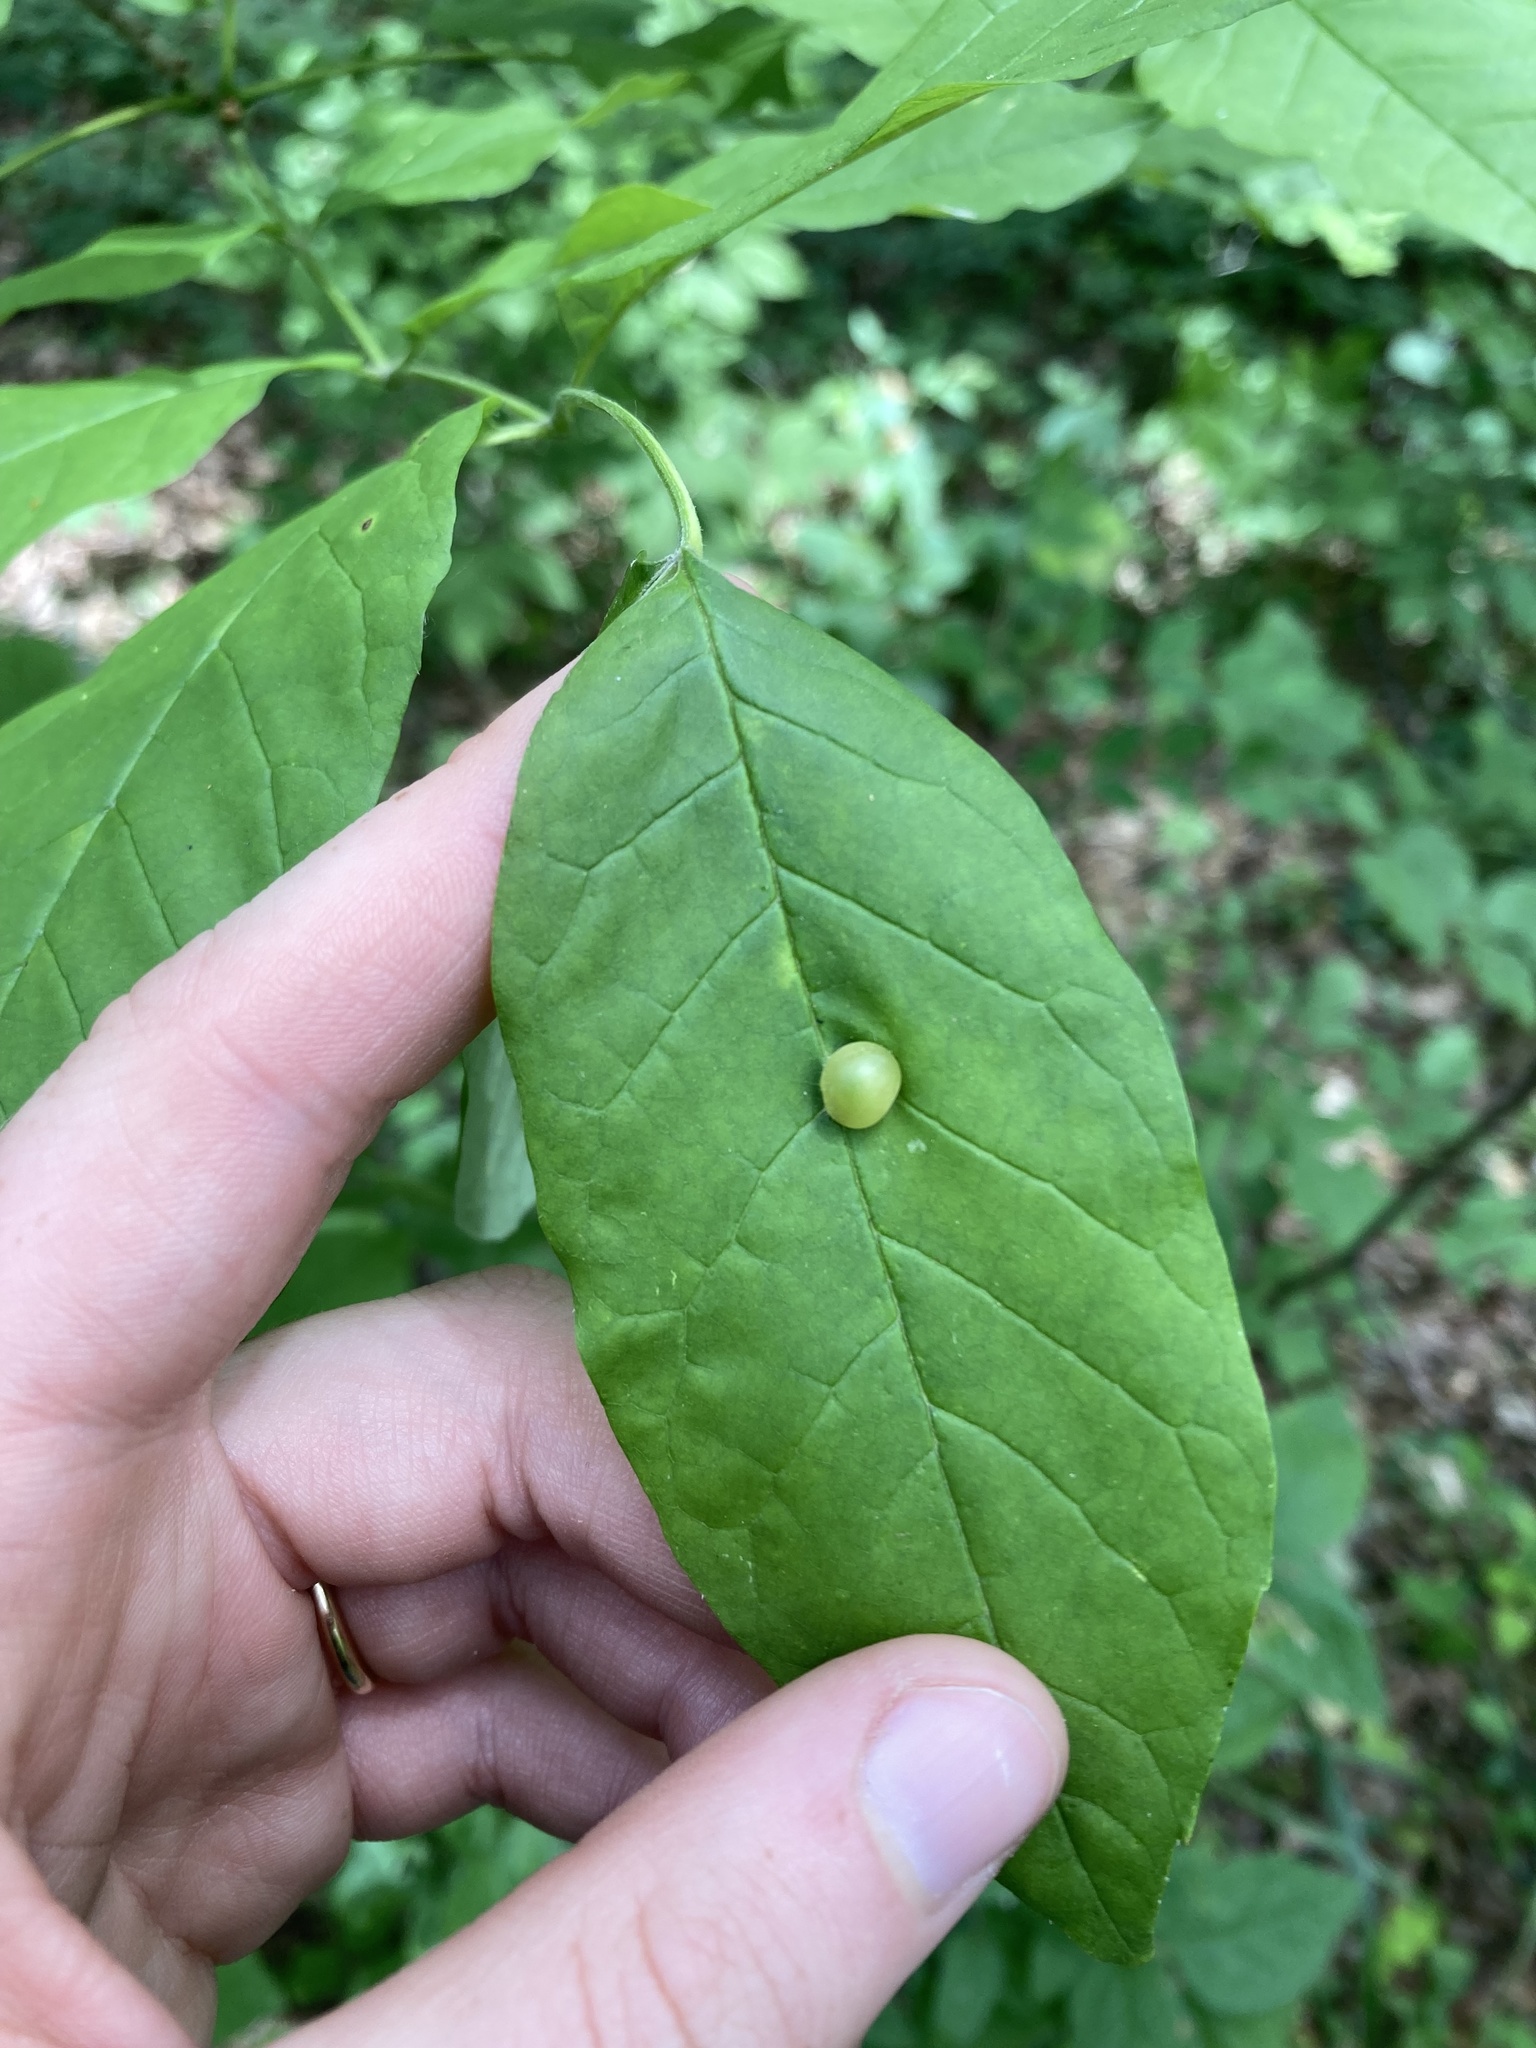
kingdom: Animalia
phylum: Arthropoda
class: Insecta
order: Diptera
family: Cecidomyiidae
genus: Dasineura
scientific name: Dasineura pellex
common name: Ash bullet gall midge
